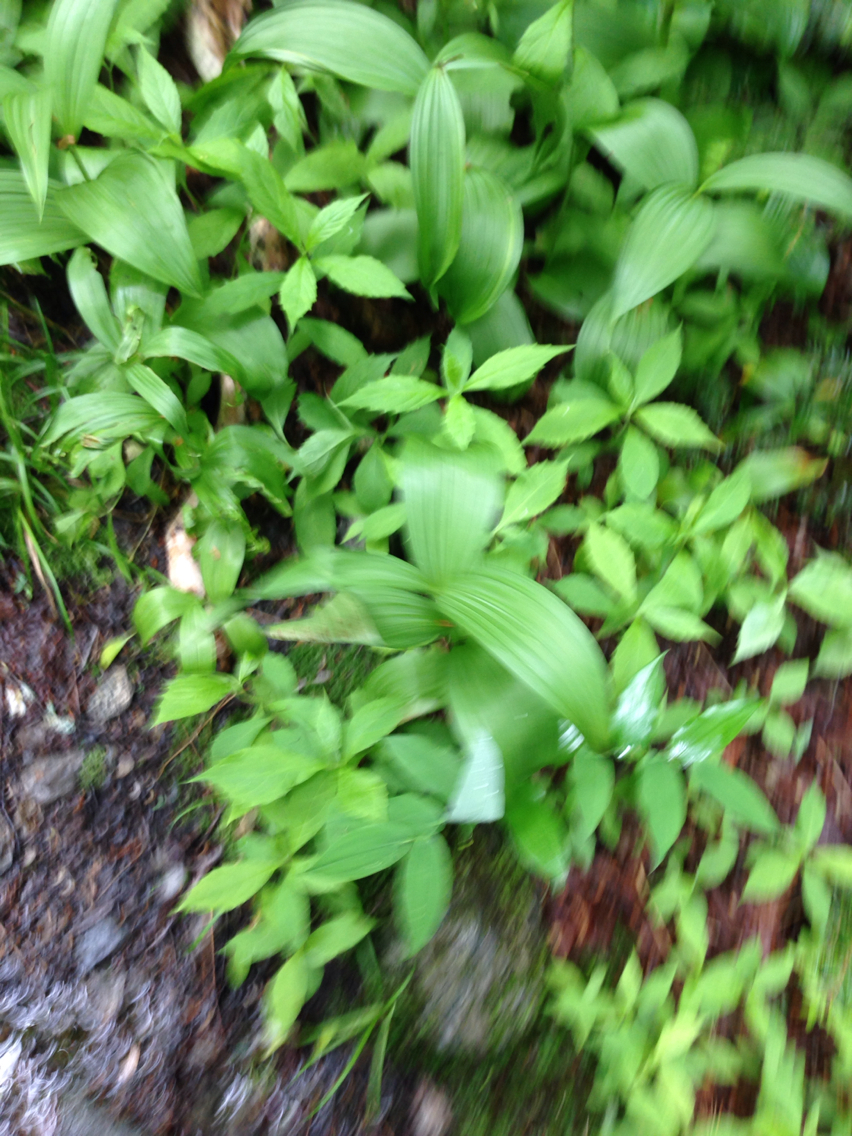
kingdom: Plantae
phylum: Tracheophyta
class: Liliopsida
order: Liliales
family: Melanthiaceae
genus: Veratrum
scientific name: Veratrum viride
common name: American false hellebore
